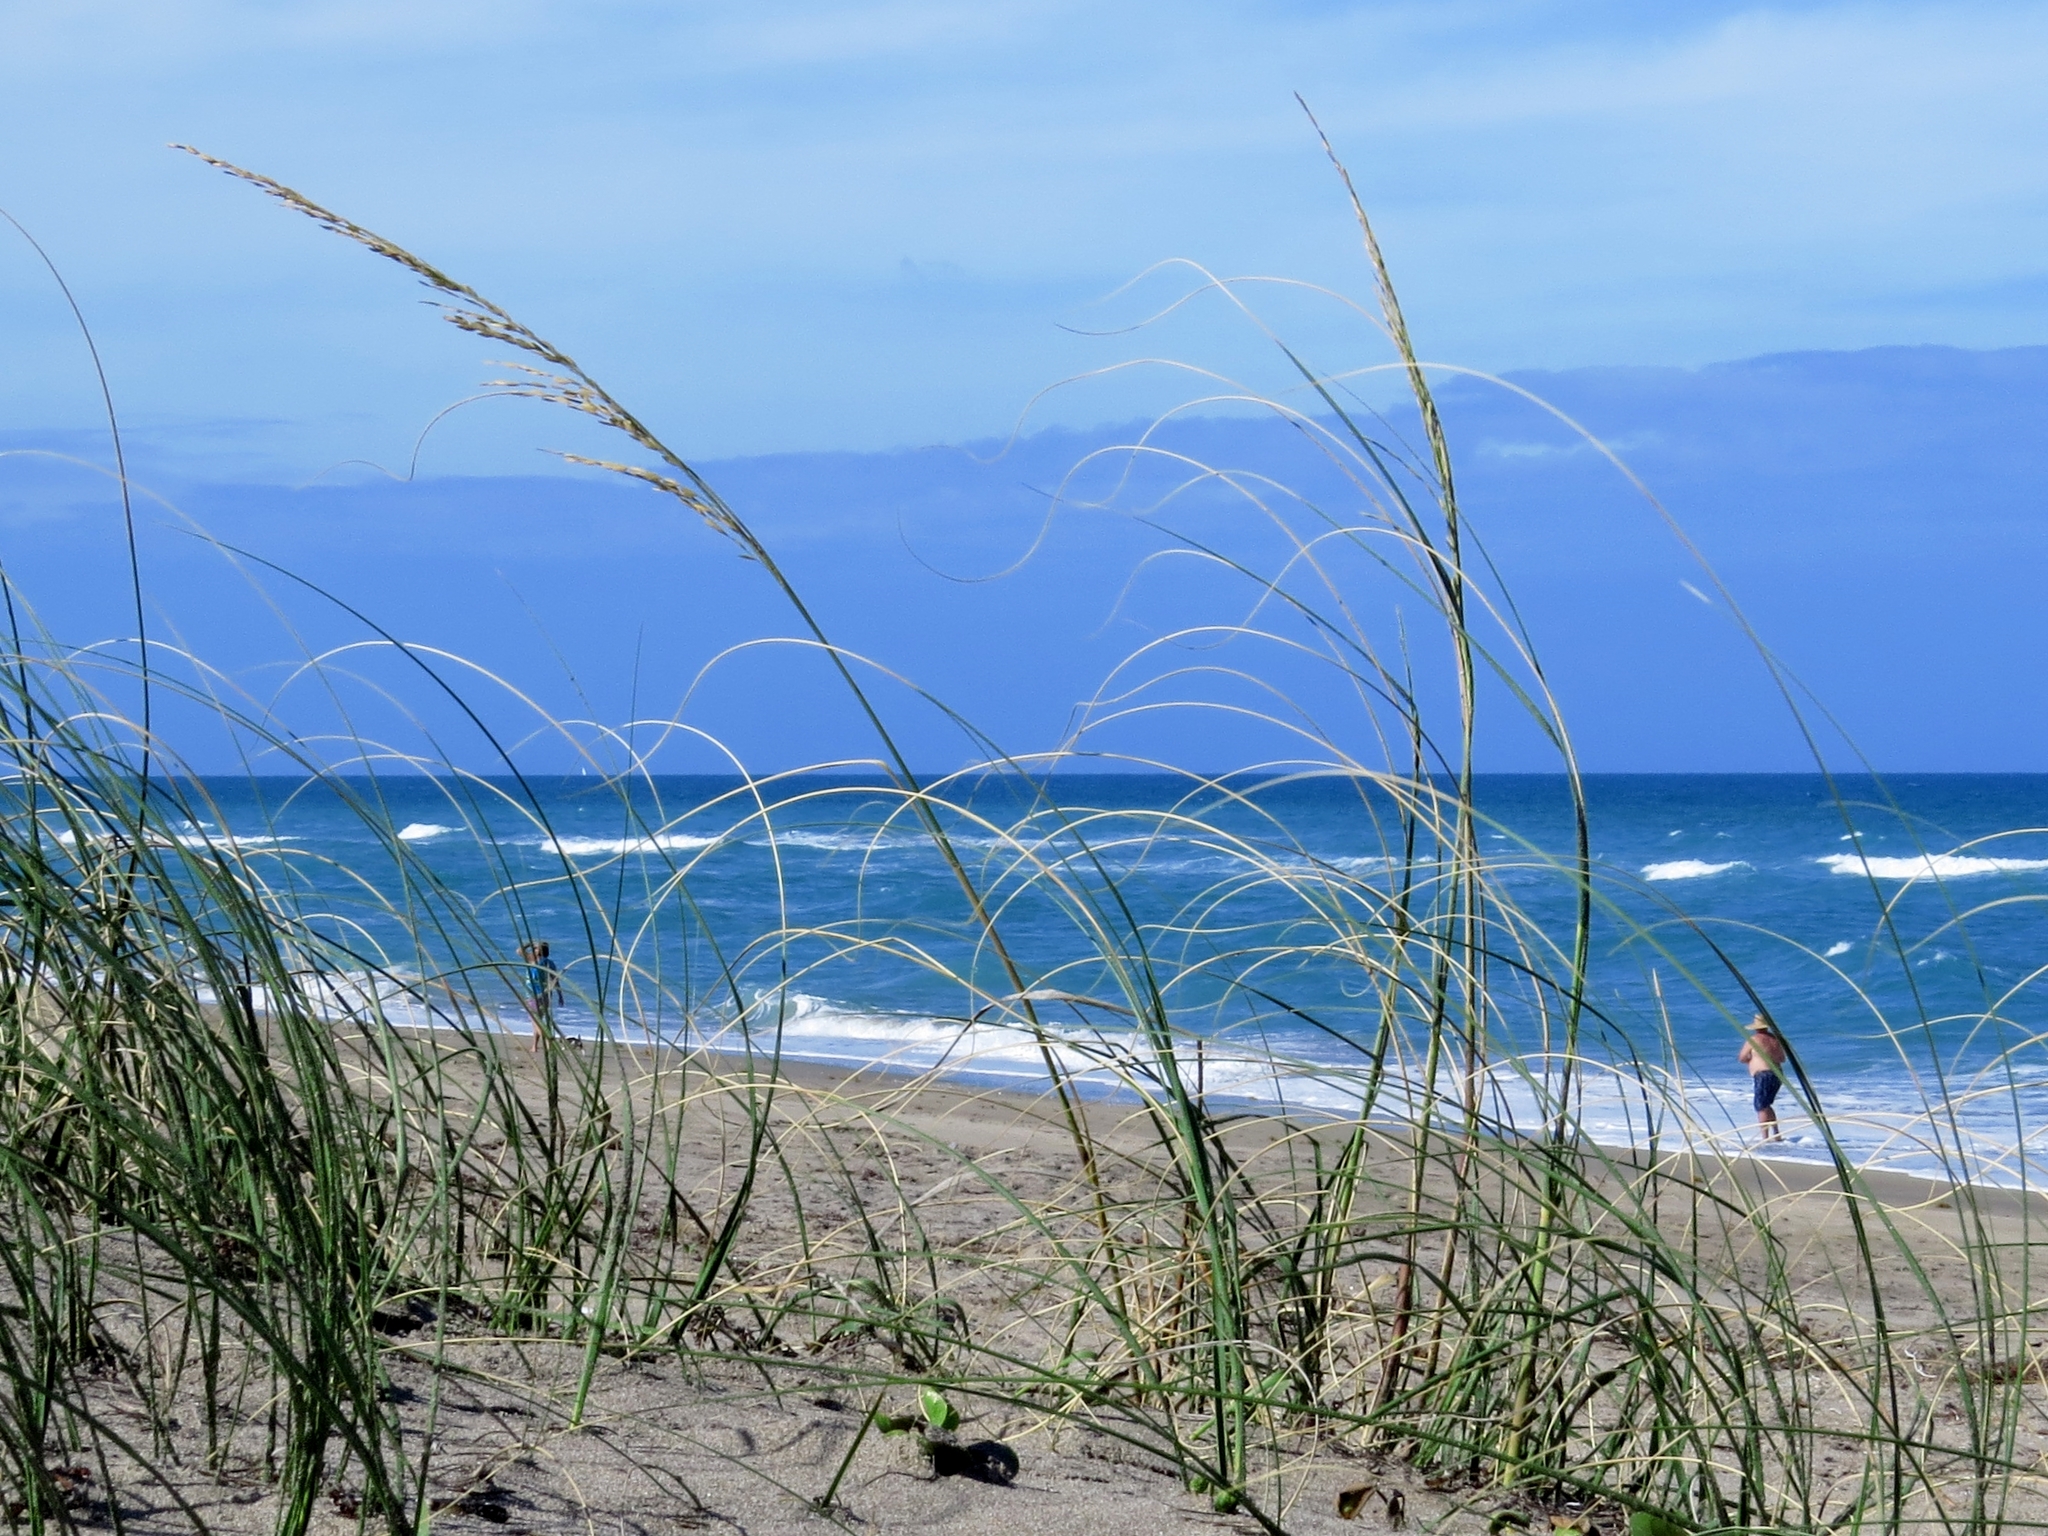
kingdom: Plantae
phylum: Tracheophyta
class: Liliopsida
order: Poales
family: Poaceae
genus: Uniola
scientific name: Uniola paniculata
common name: Seaside-oats
